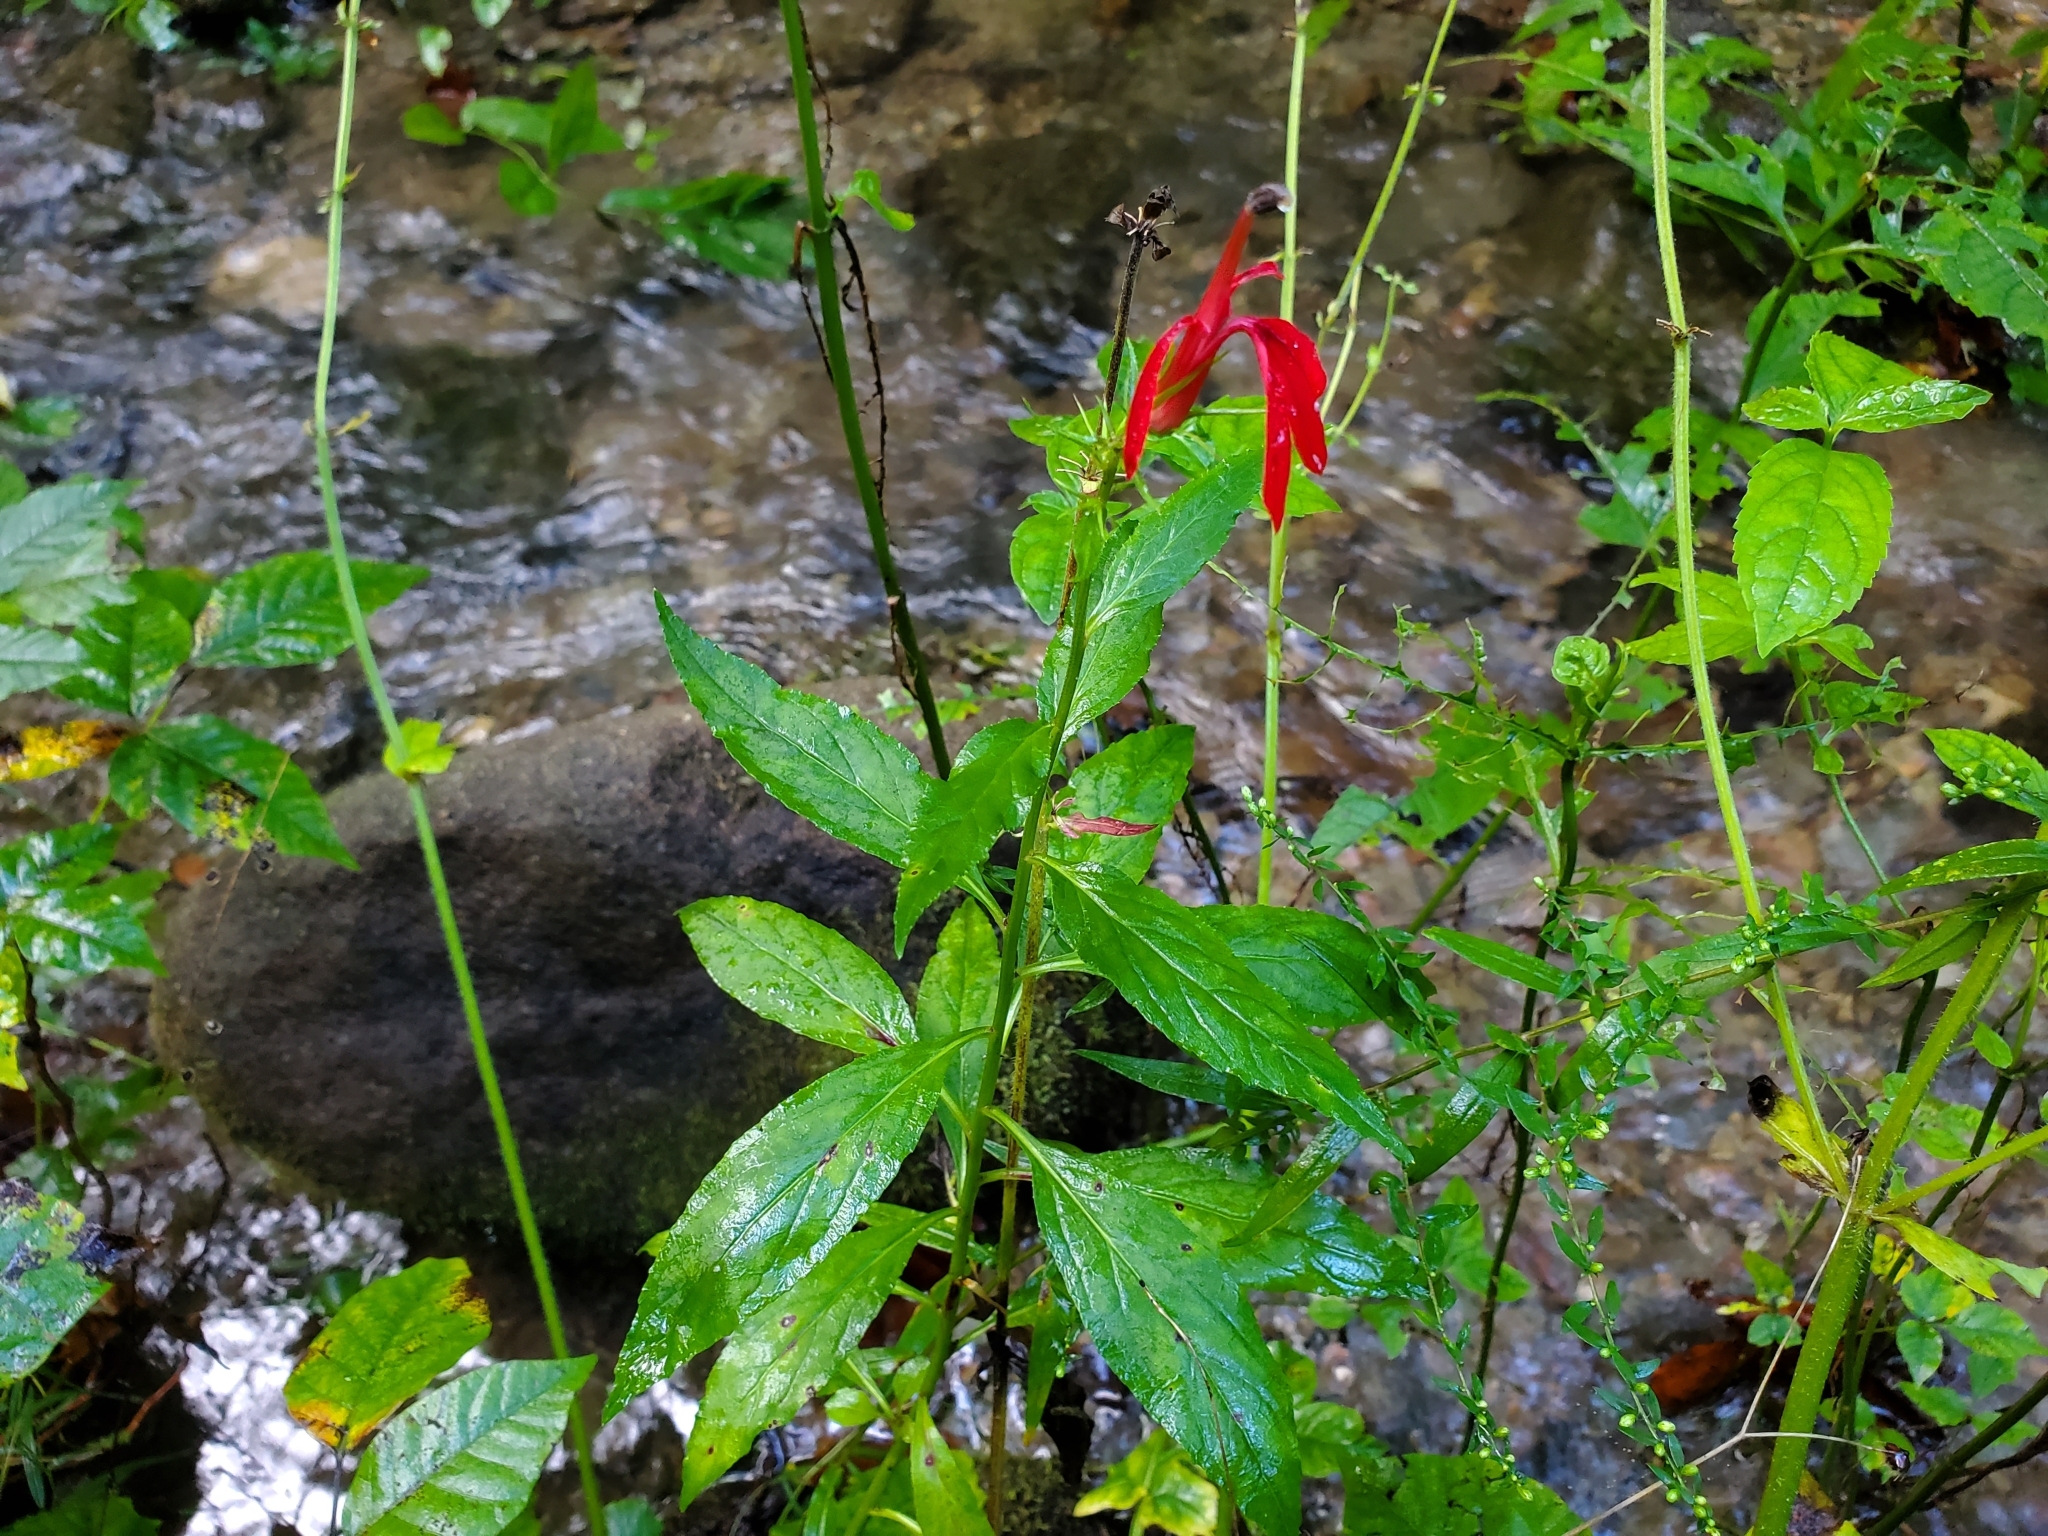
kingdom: Plantae
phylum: Tracheophyta
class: Magnoliopsida
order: Asterales
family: Campanulaceae
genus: Lobelia
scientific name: Lobelia cardinalis
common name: Cardinal flower
